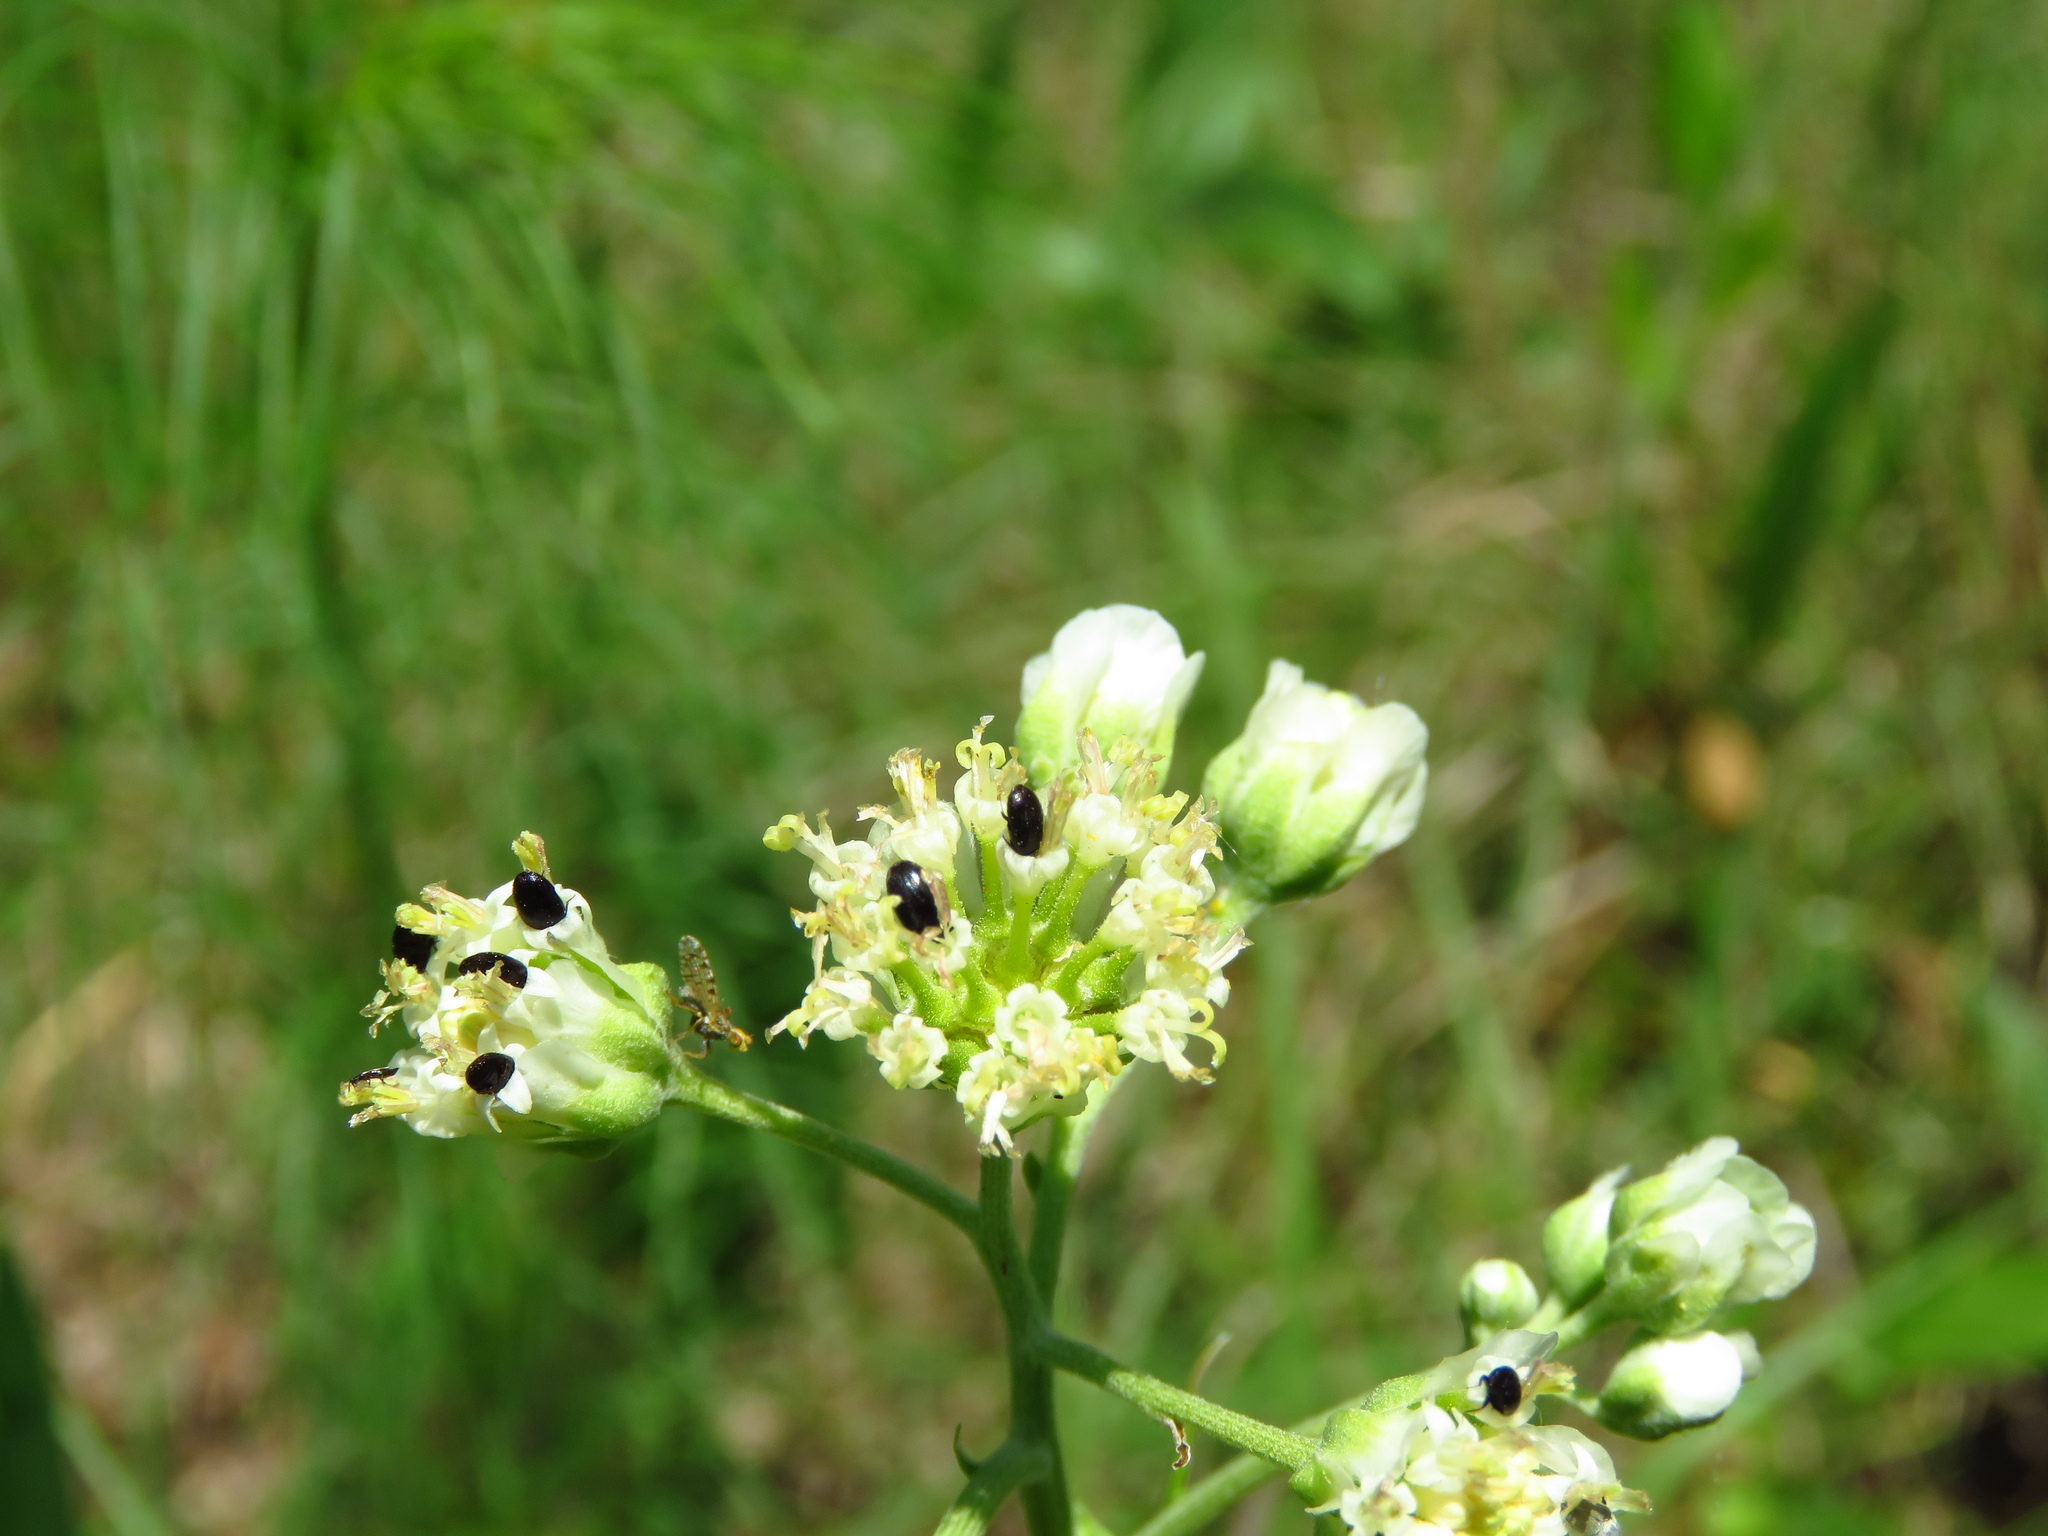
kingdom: Plantae
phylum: Tracheophyta
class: Magnoliopsida
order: Asterales
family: Asteraceae
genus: Hymenopappus
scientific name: Hymenopappus scabiosaeus
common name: Carolina woollywhite
